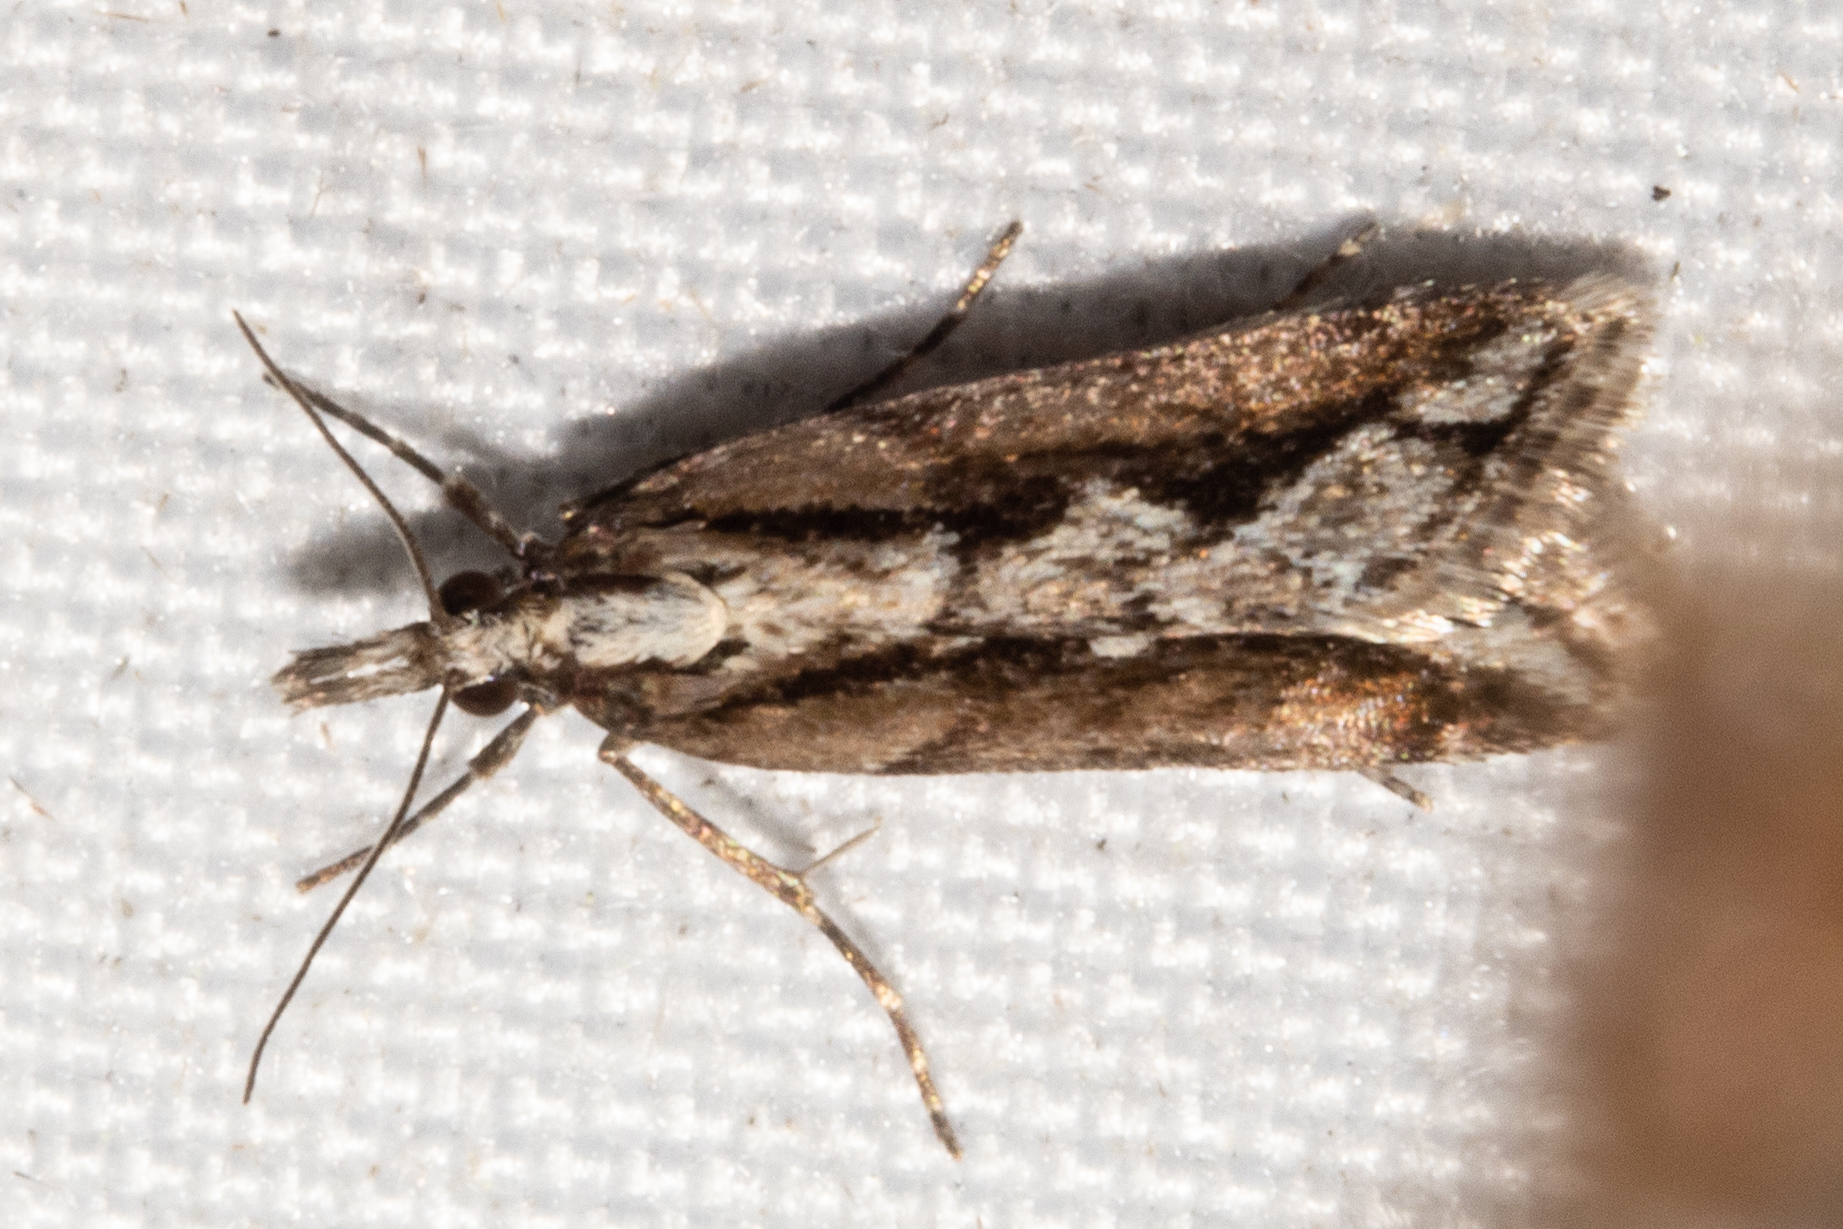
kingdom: Animalia
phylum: Arthropoda
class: Insecta
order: Lepidoptera
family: Crambidae
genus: Eudonia
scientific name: Eudonia steropaea
